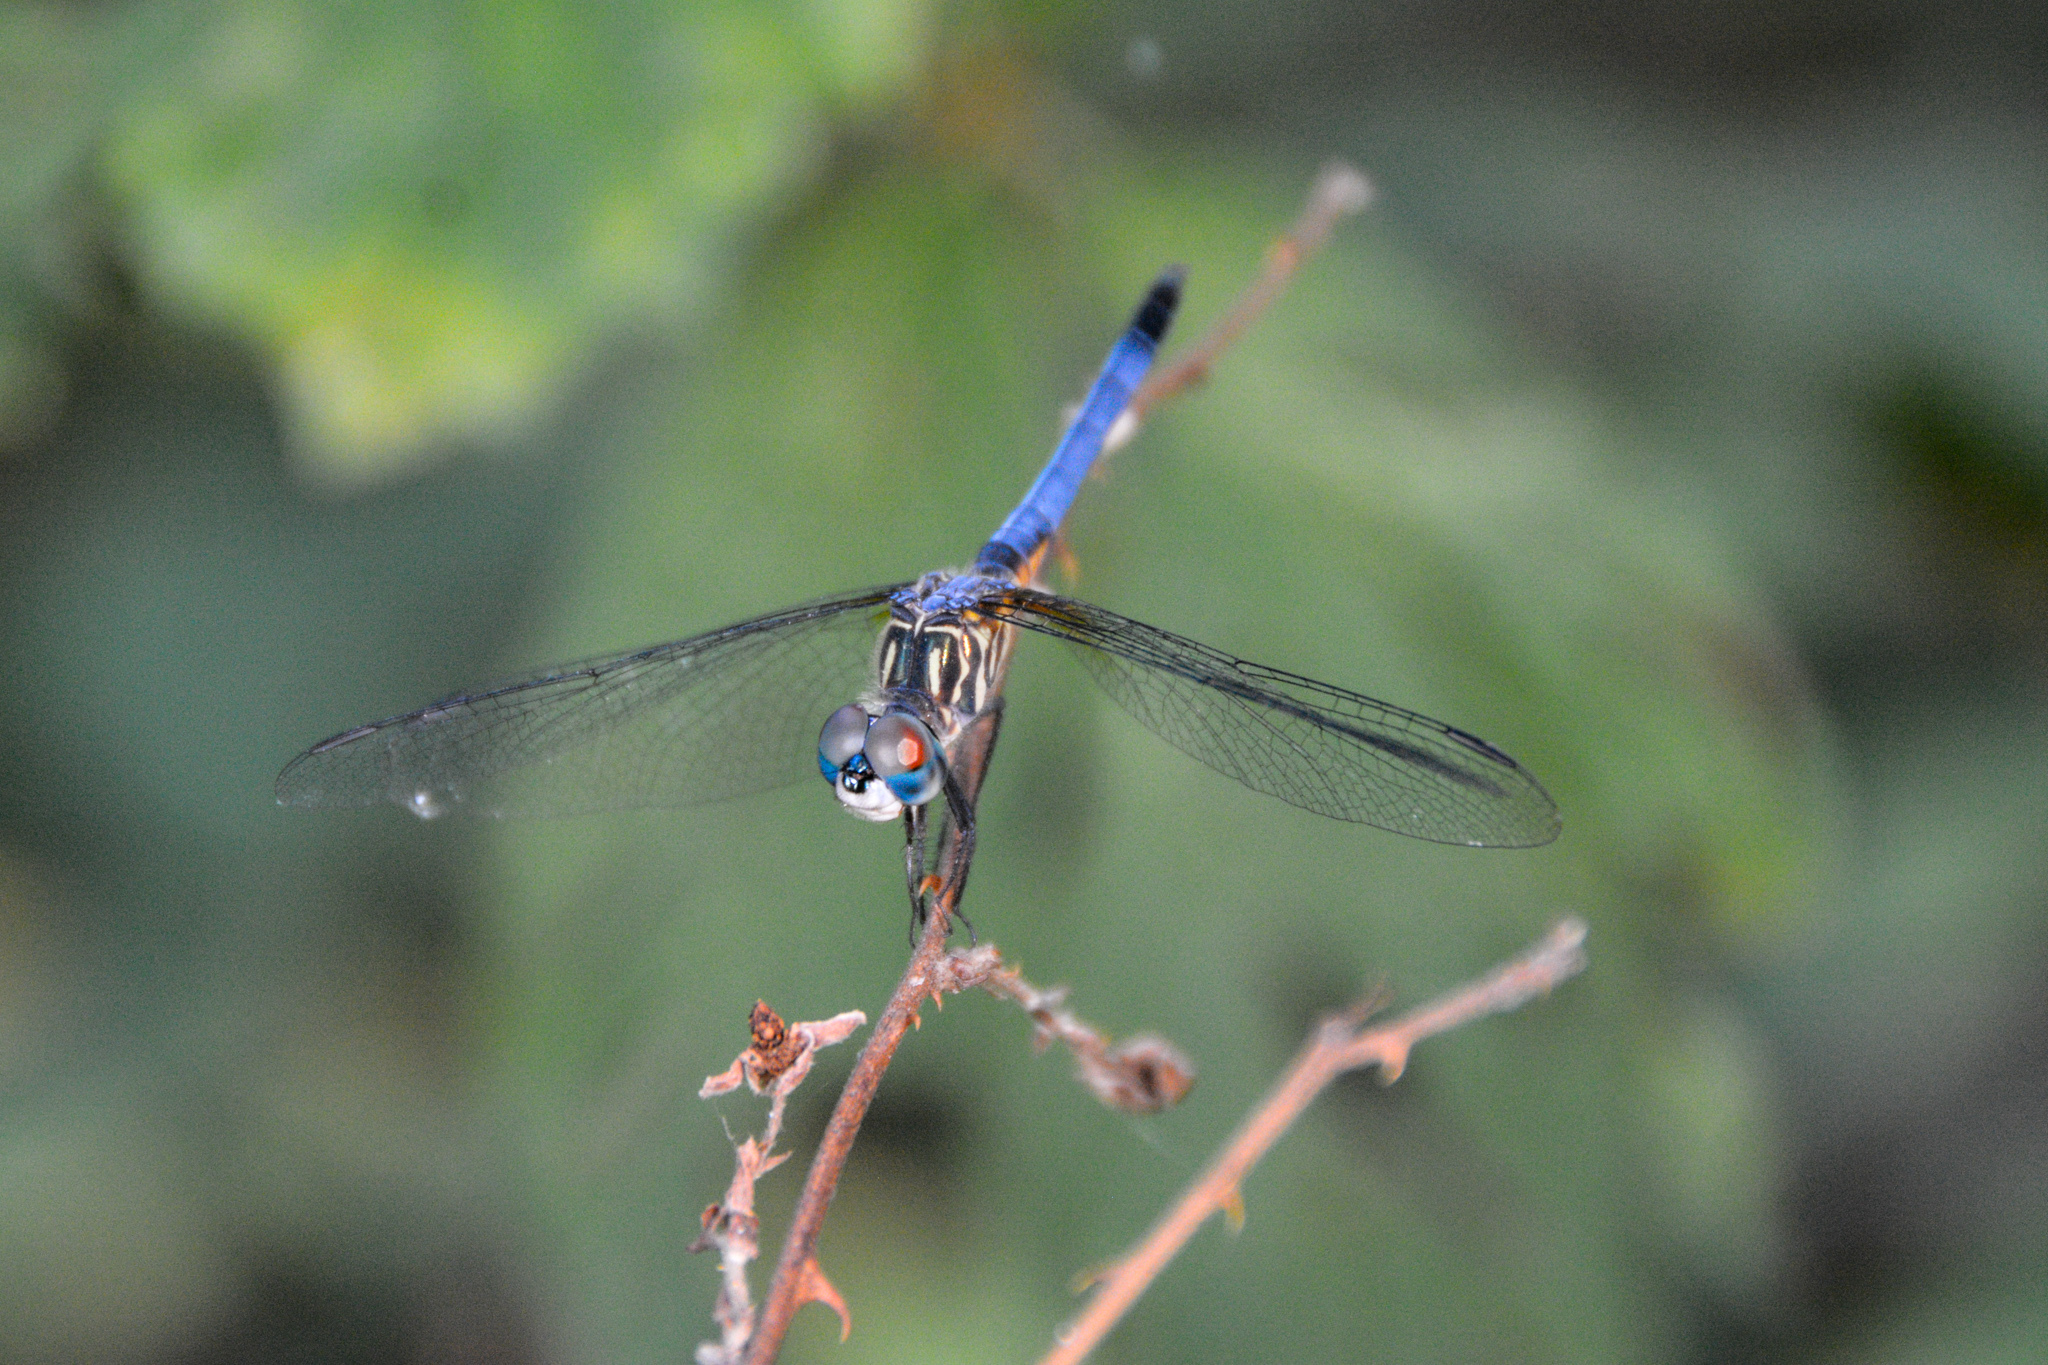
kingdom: Animalia
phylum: Arthropoda
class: Insecta
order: Odonata
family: Libellulidae
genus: Pachydiplax
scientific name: Pachydiplax longipennis
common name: Blue dasher
